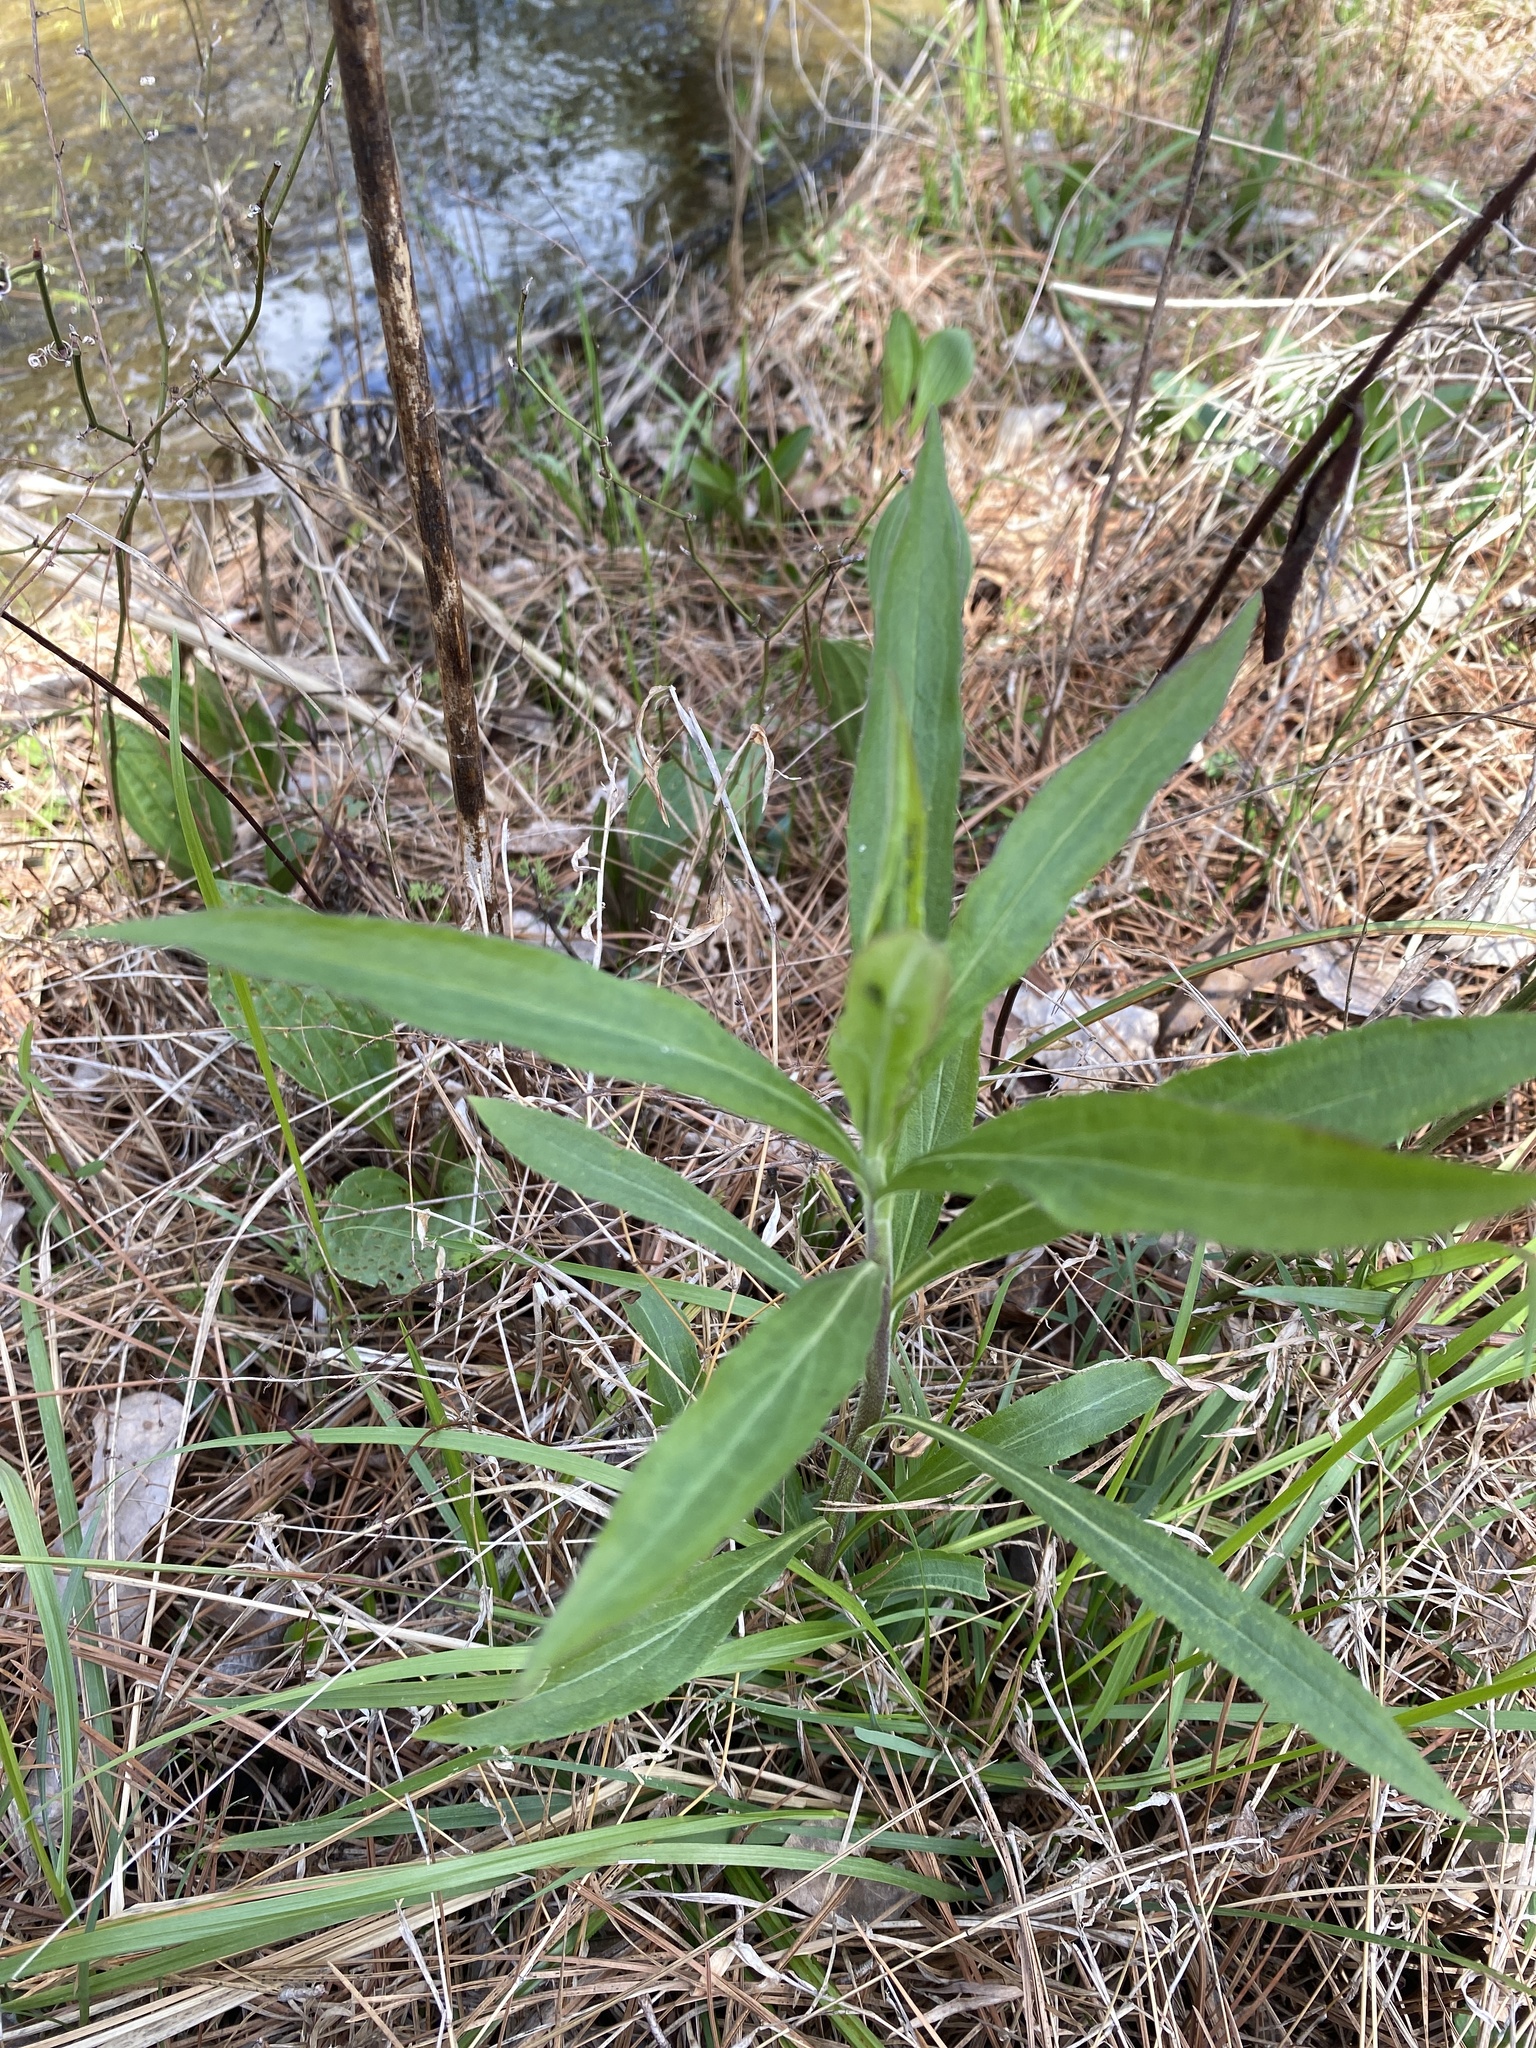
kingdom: Plantae
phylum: Tracheophyta
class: Magnoliopsida
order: Asterales
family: Asteraceae
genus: Solidago
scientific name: Solidago altissima
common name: Late goldenrod
